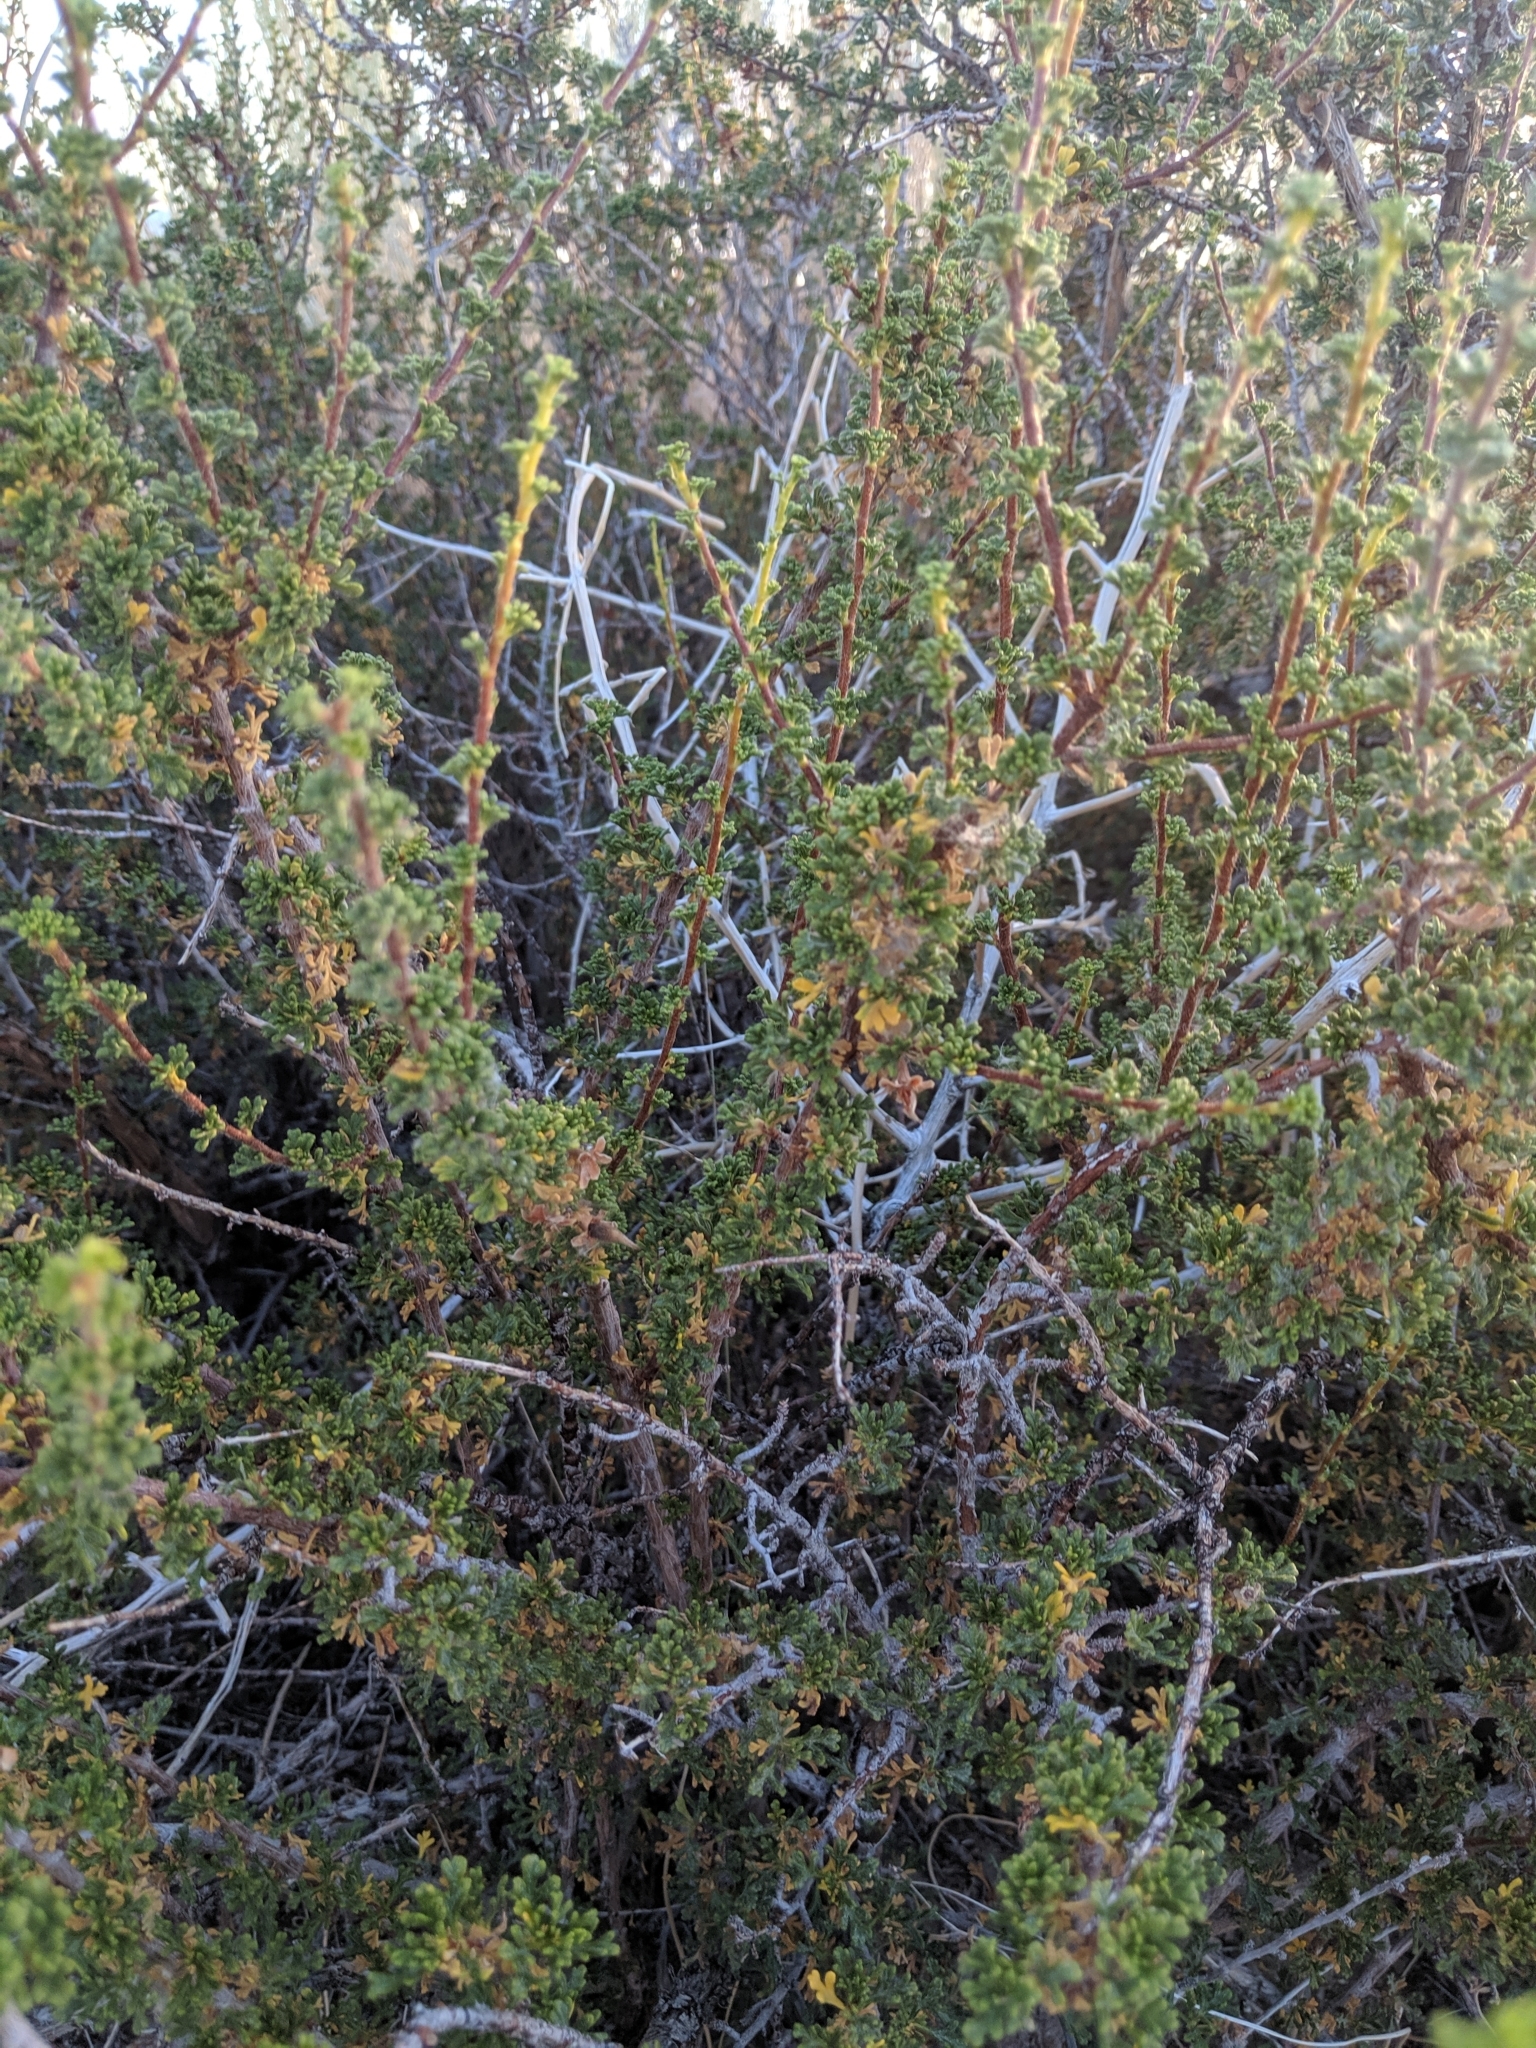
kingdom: Plantae
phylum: Tracheophyta
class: Magnoliopsida
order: Rosales
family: Rosaceae
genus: Purshia
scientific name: Purshia tridentata
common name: Antelope bitterbrush
